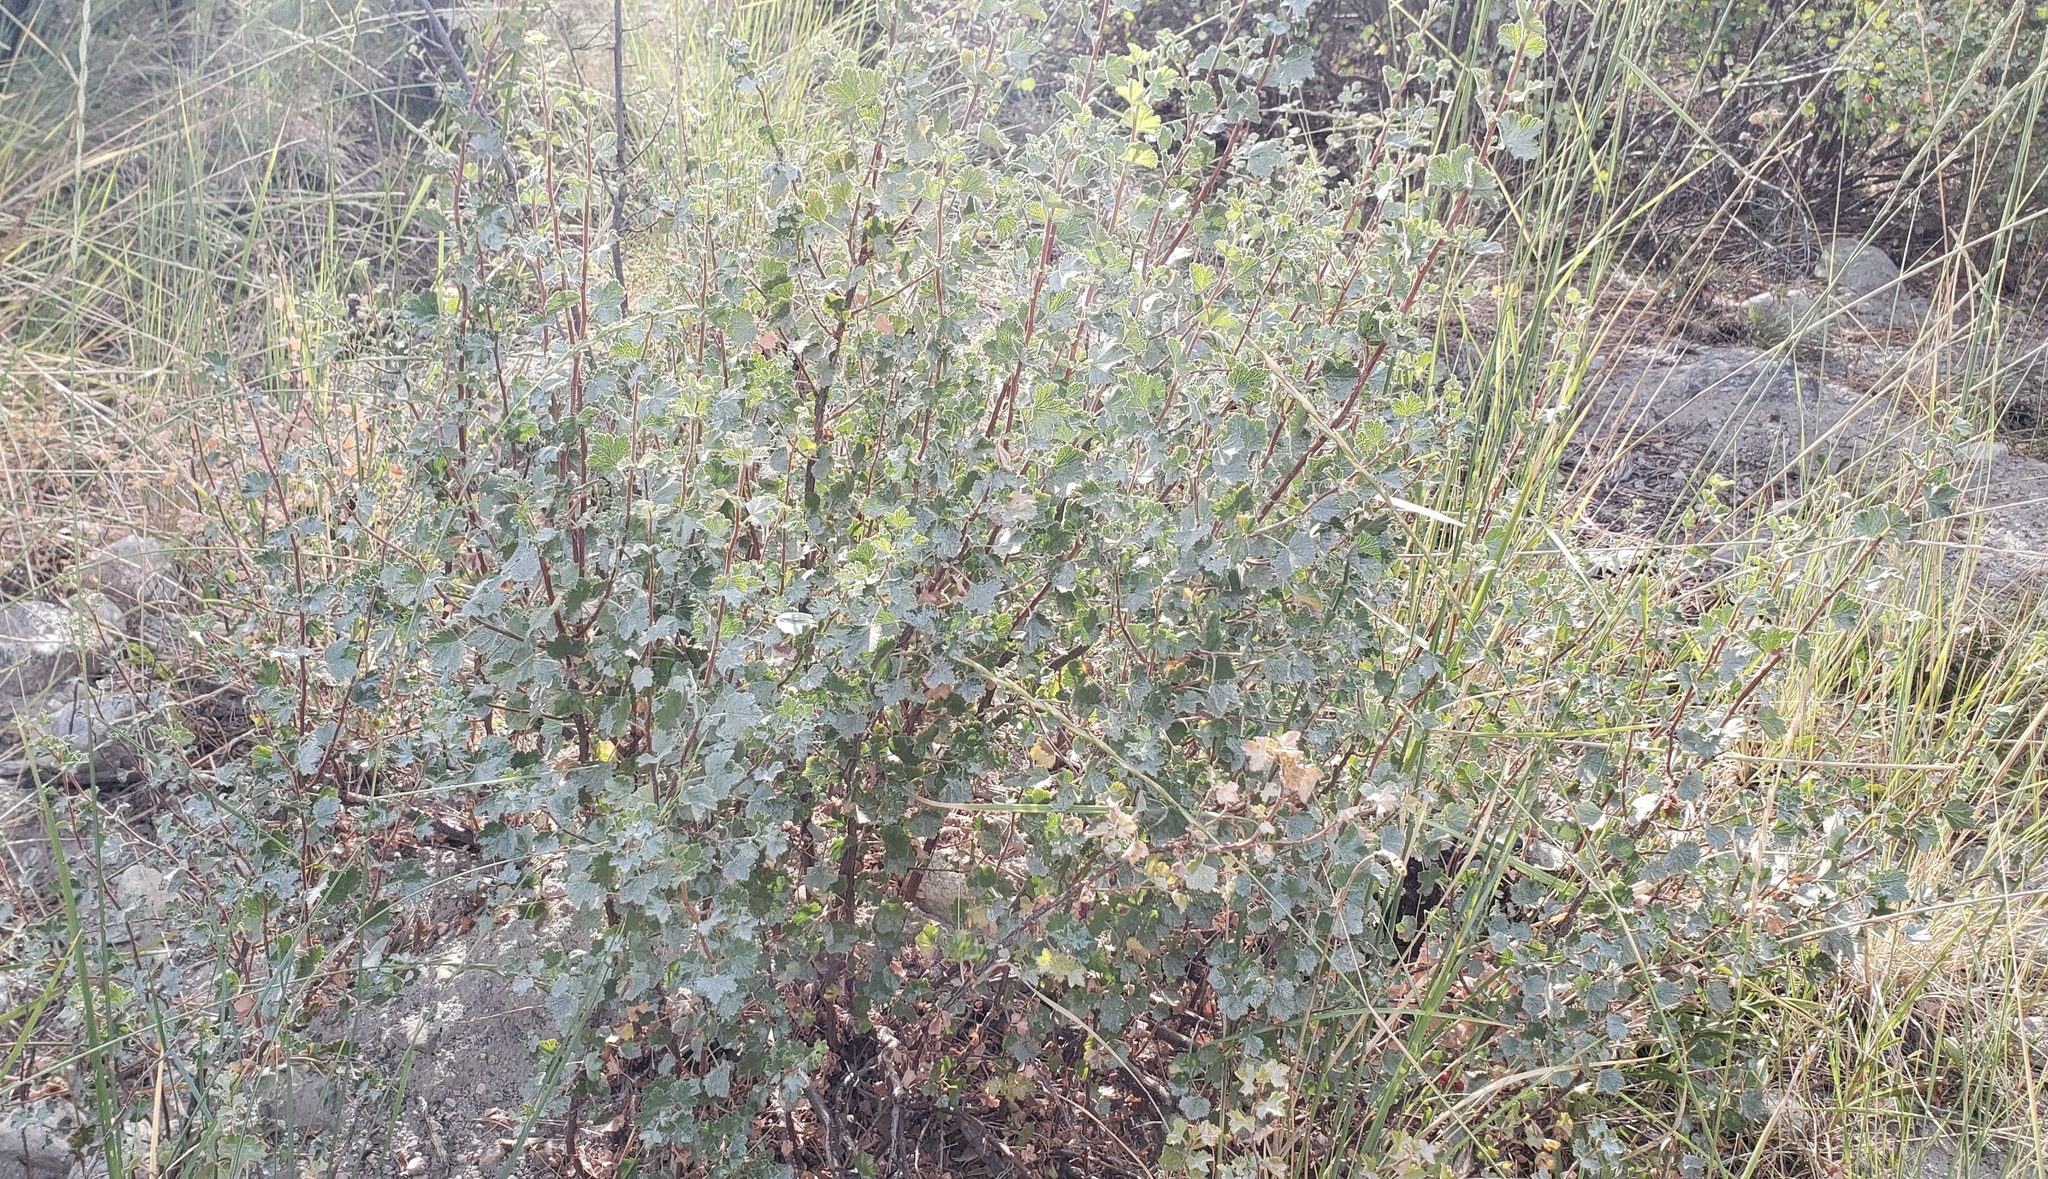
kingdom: Plantae
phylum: Tracheophyta
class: Magnoliopsida
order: Saxifragales
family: Grossulariaceae
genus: Ribes
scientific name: Ribes cereum
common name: Wax currant
